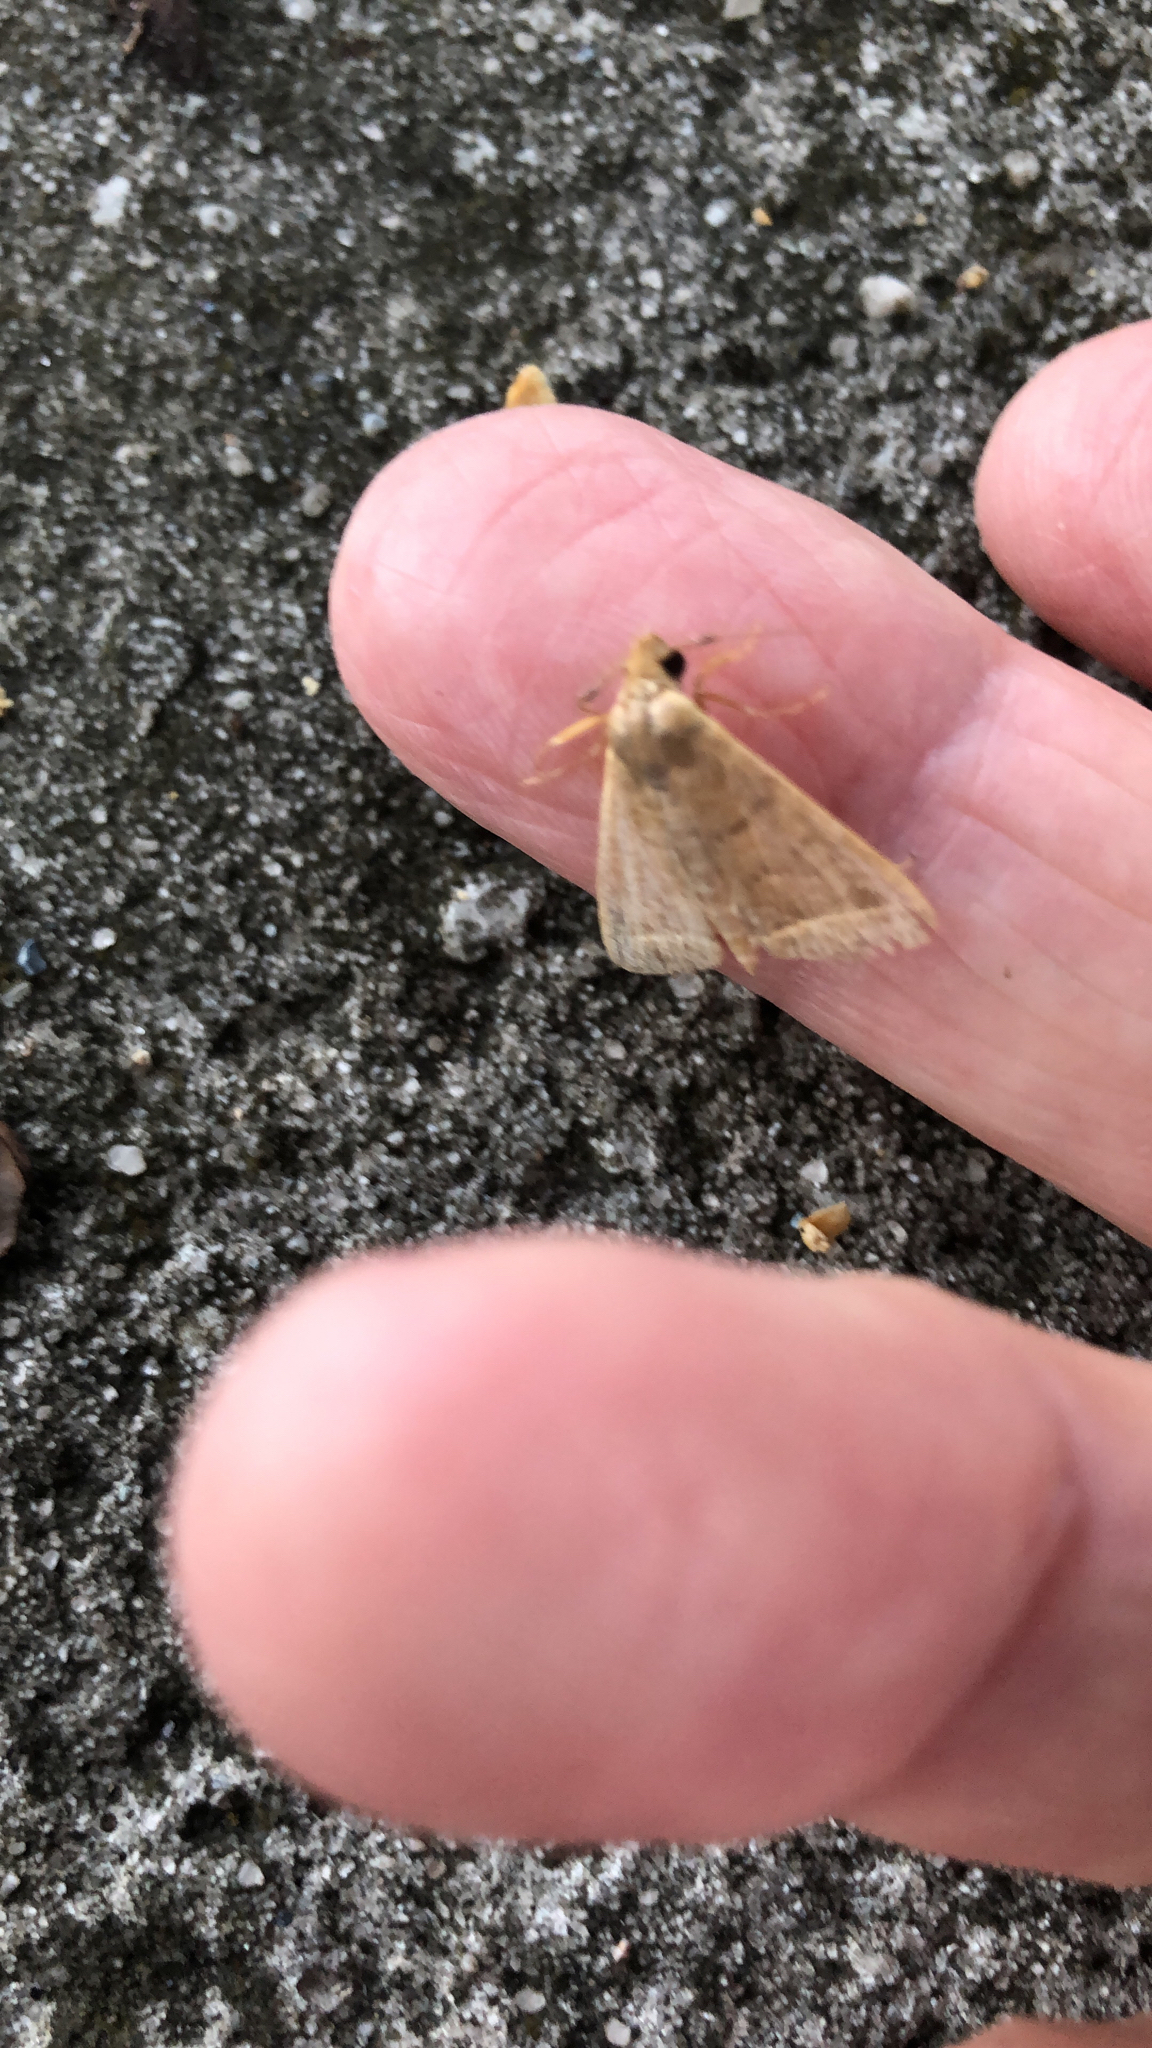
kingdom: Animalia
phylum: Arthropoda
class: Insecta
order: Lepidoptera
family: Erebidae
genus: Zanclognatha
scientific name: Zanclognatha jacchusalis
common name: Yellowish zanclognatha
